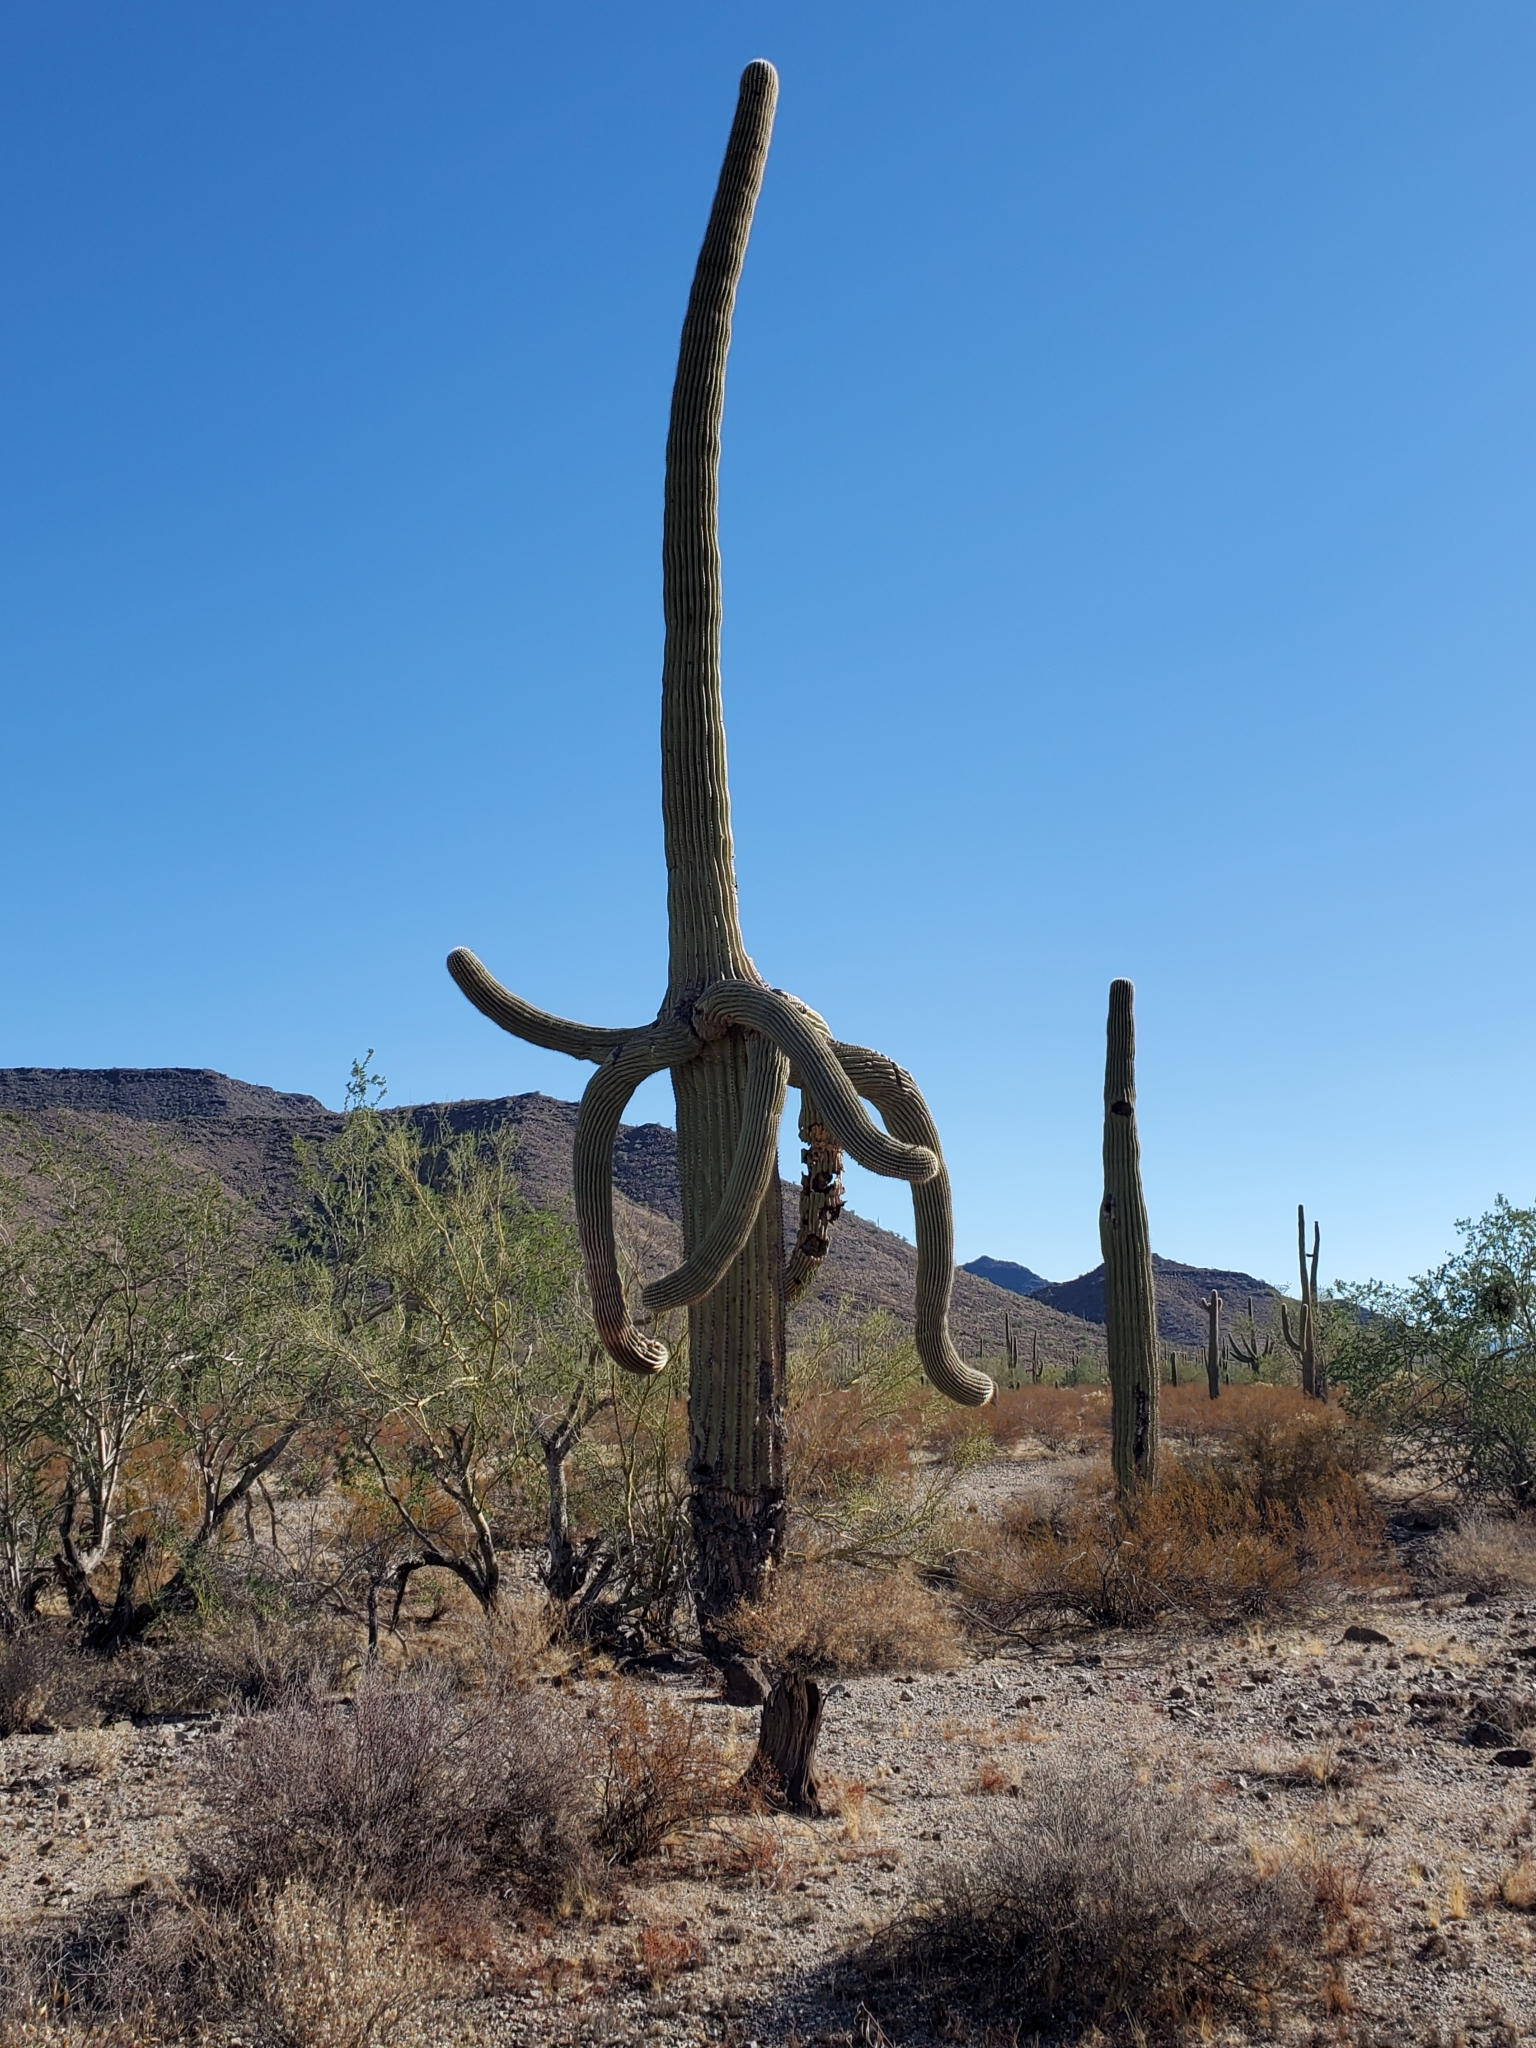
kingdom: Plantae
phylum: Tracheophyta
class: Magnoliopsida
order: Caryophyllales
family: Cactaceae
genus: Carnegiea
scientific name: Carnegiea gigantea
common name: Saguaro
